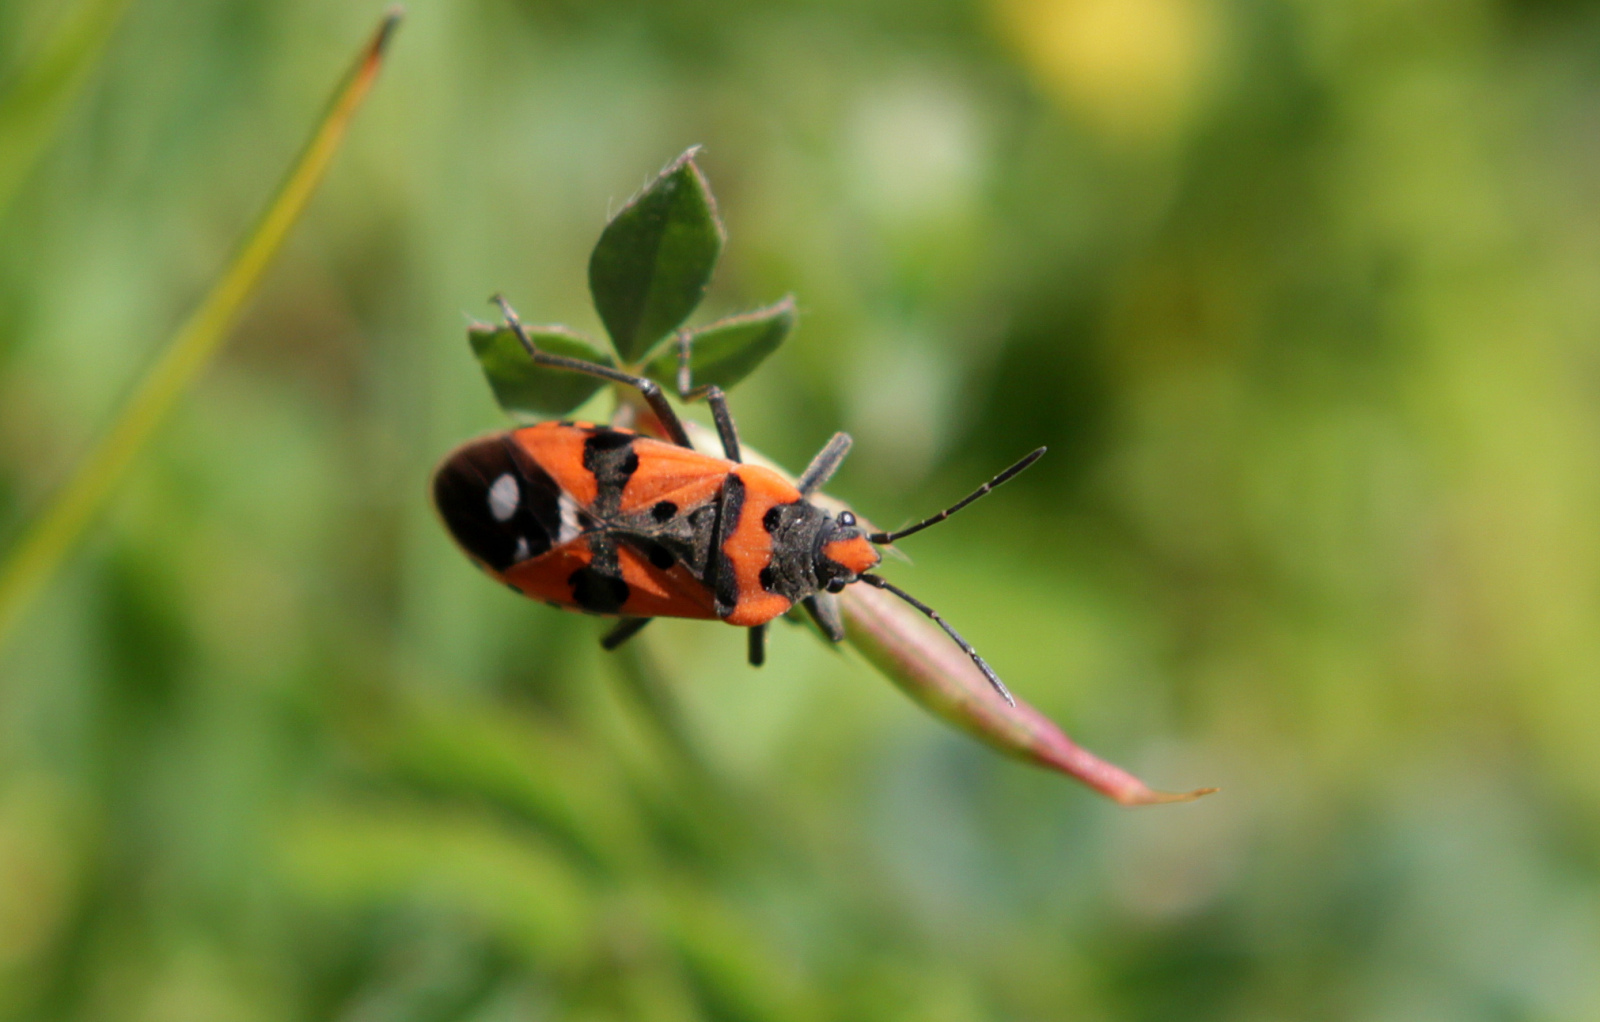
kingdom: Animalia
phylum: Arthropoda
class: Insecta
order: Hemiptera
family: Lygaeidae
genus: Lygaeus
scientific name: Lygaeus equestris
